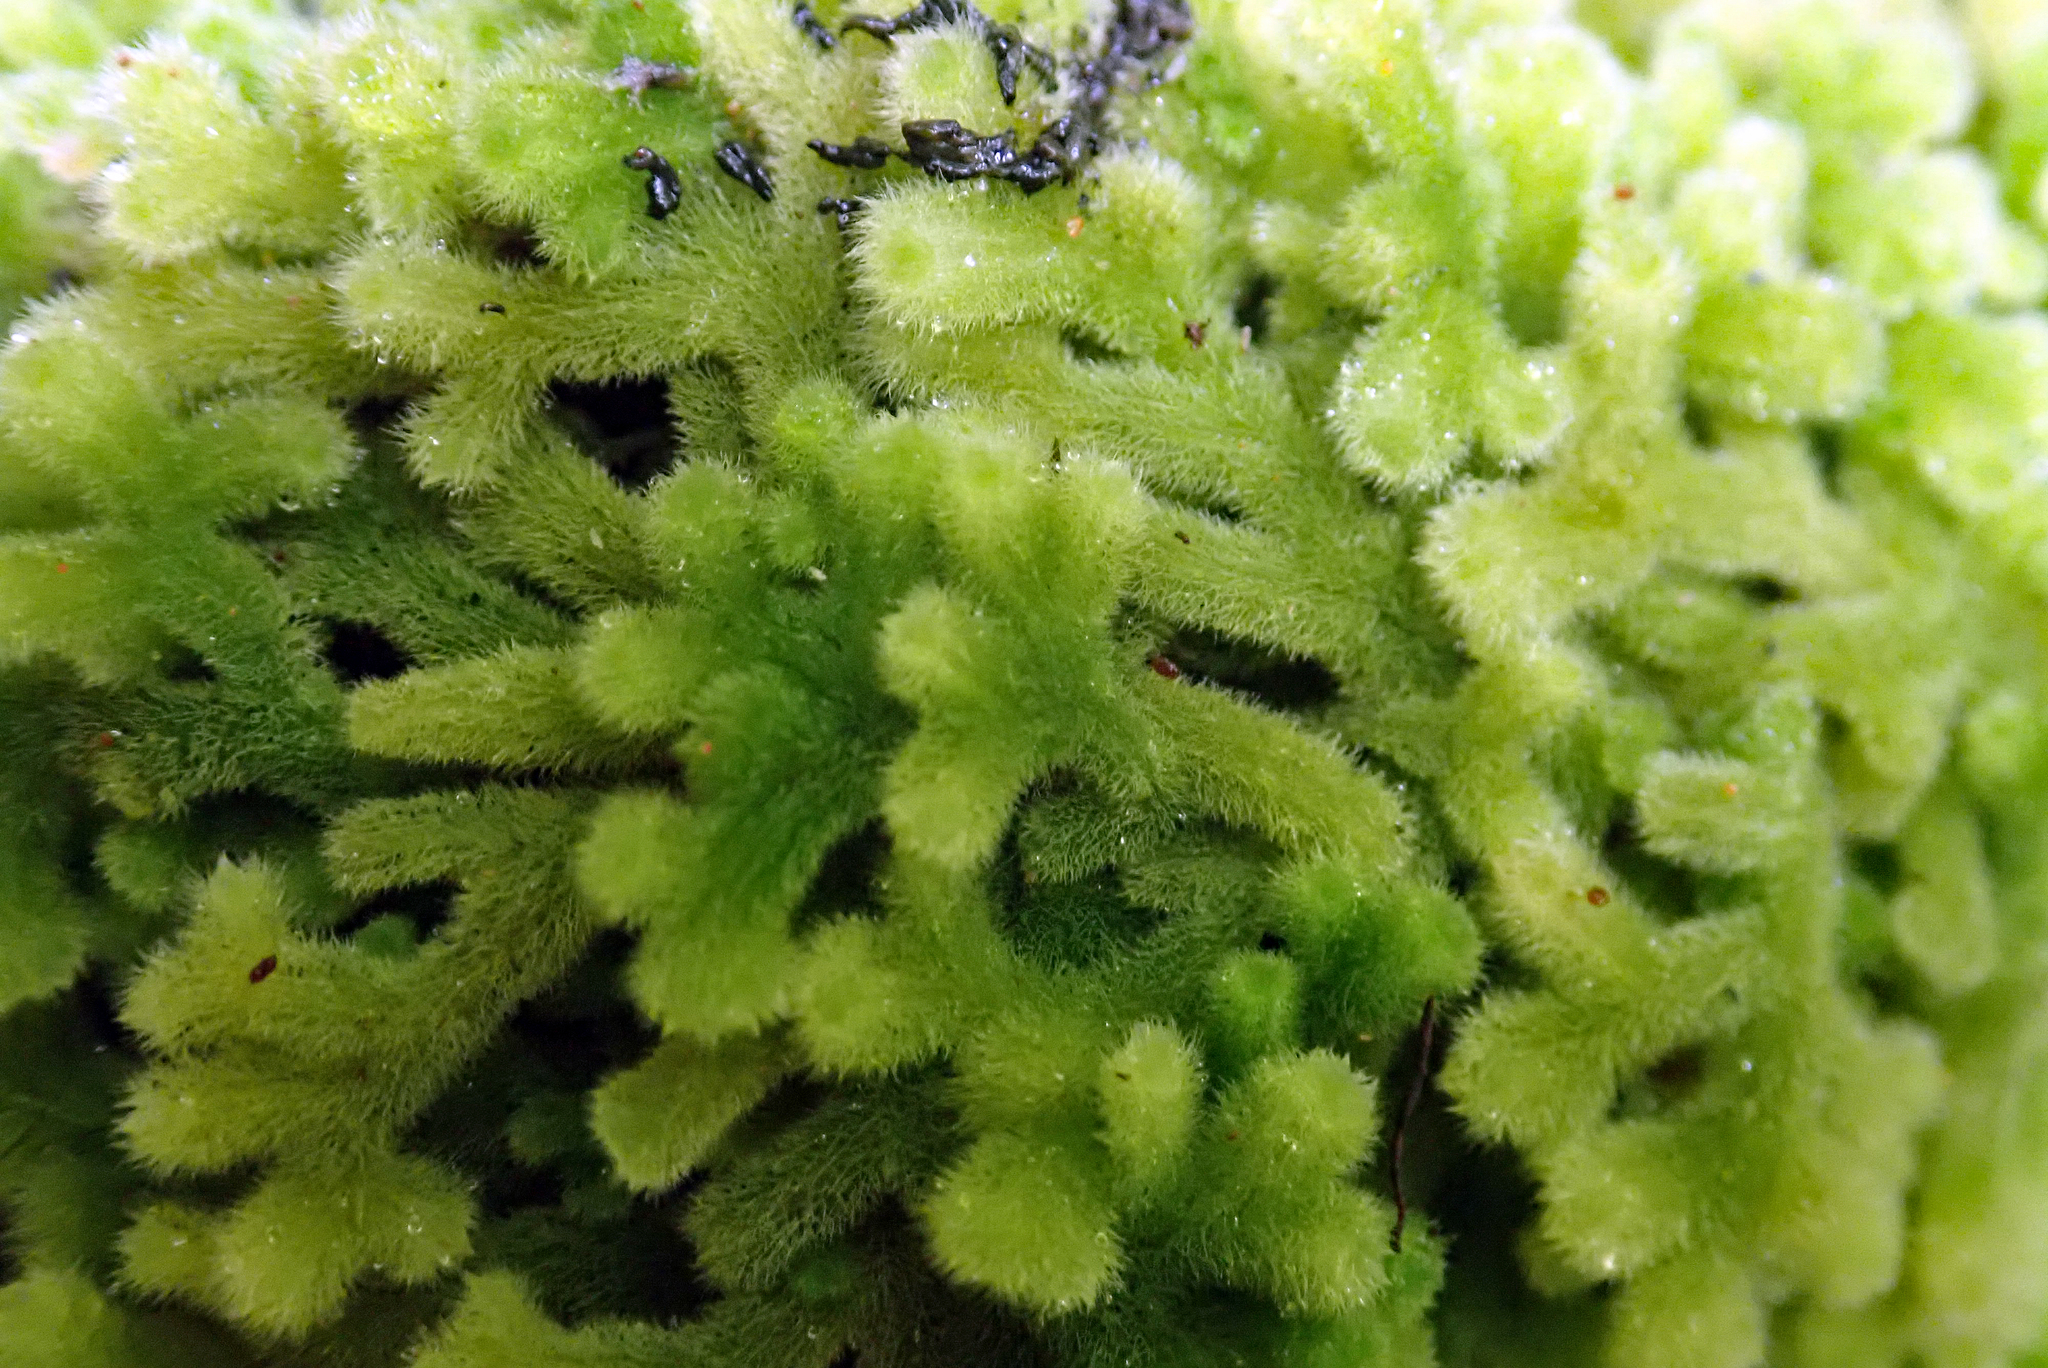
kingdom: Plantae
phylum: Marchantiophyta
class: Jungermanniopsida
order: Jungermanniales
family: Trichocoleaceae
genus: Leiomitra
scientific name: Leiomitra lanata
